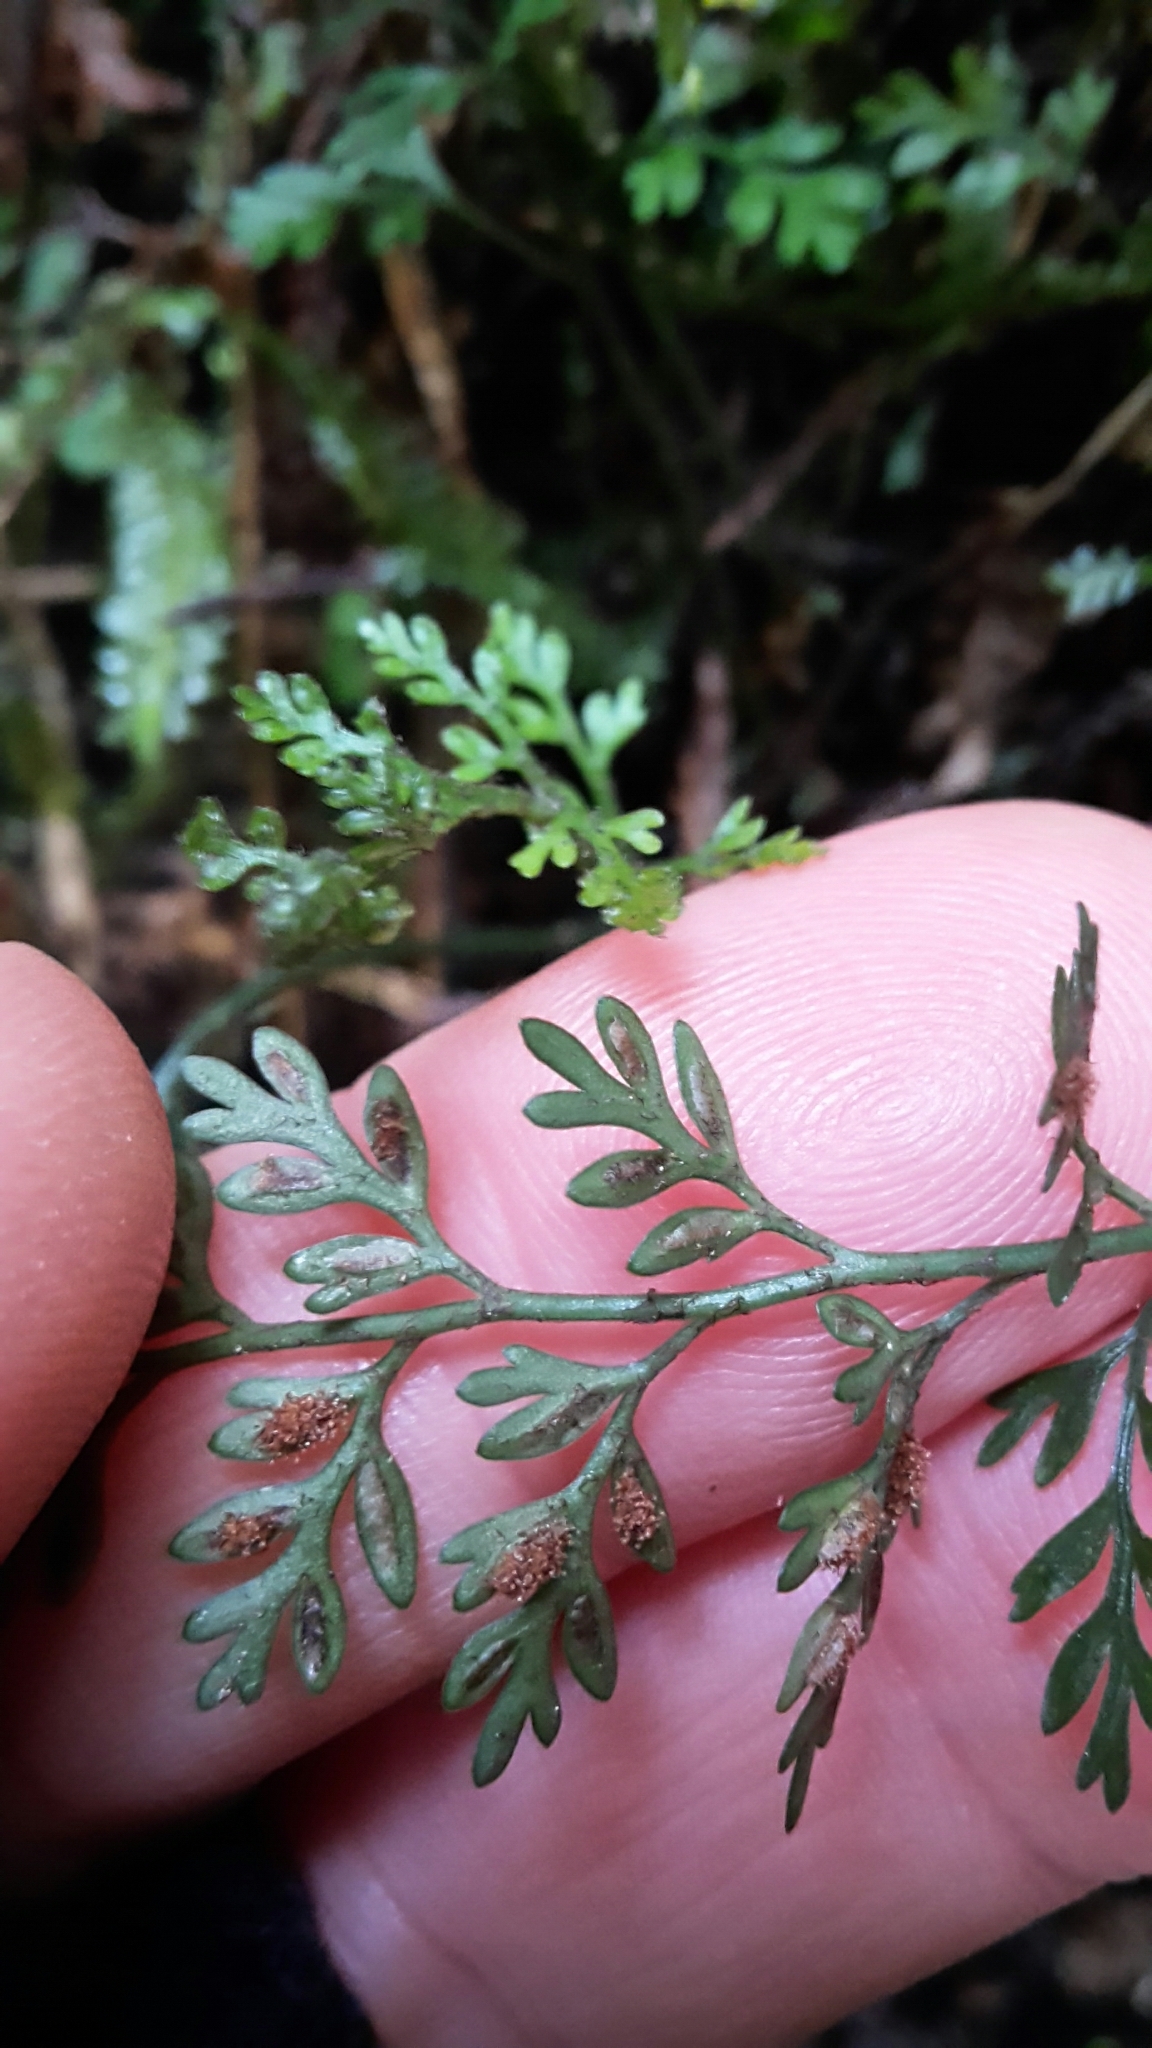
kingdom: Plantae
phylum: Tracheophyta
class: Polypodiopsida
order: Polypodiales
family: Aspleniaceae
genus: Asplenium
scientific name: Asplenium hookerianum
